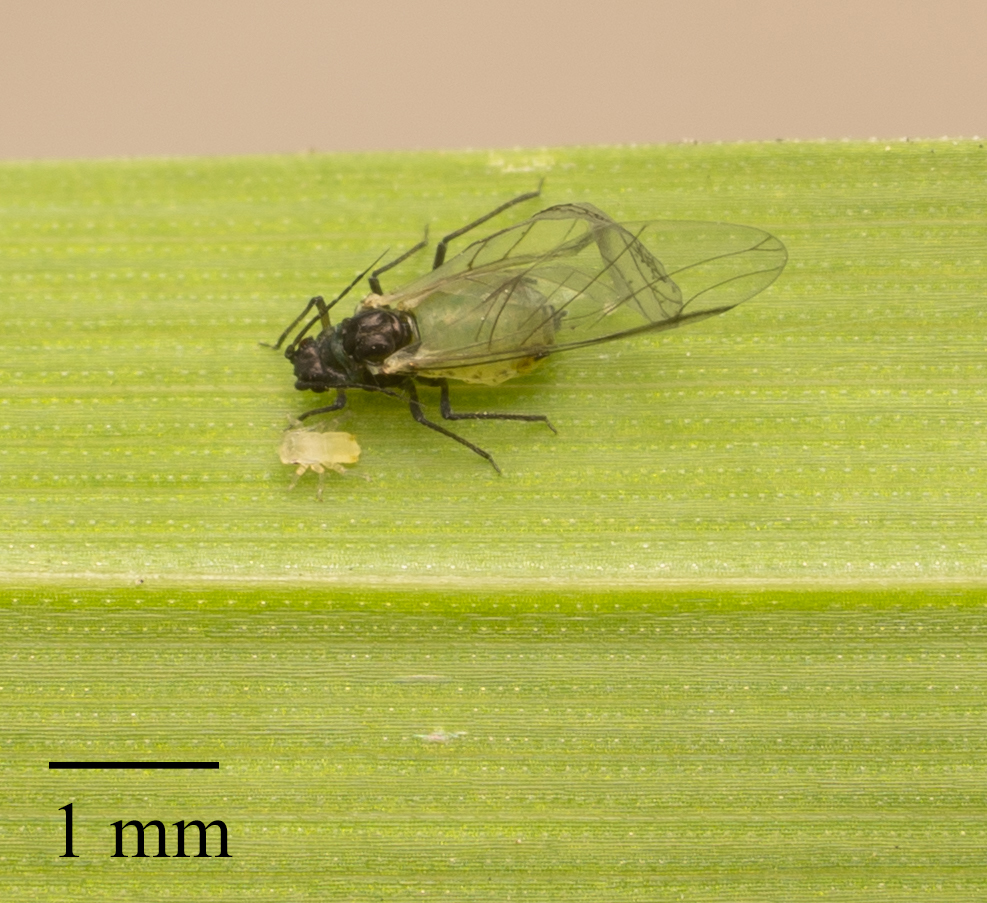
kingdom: Animalia
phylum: Arthropoda
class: Insecta
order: Hemiptera
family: Aphididae
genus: Rhopalosiphum
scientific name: Rhopalosiphum maidis
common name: Corn leaf aphid
